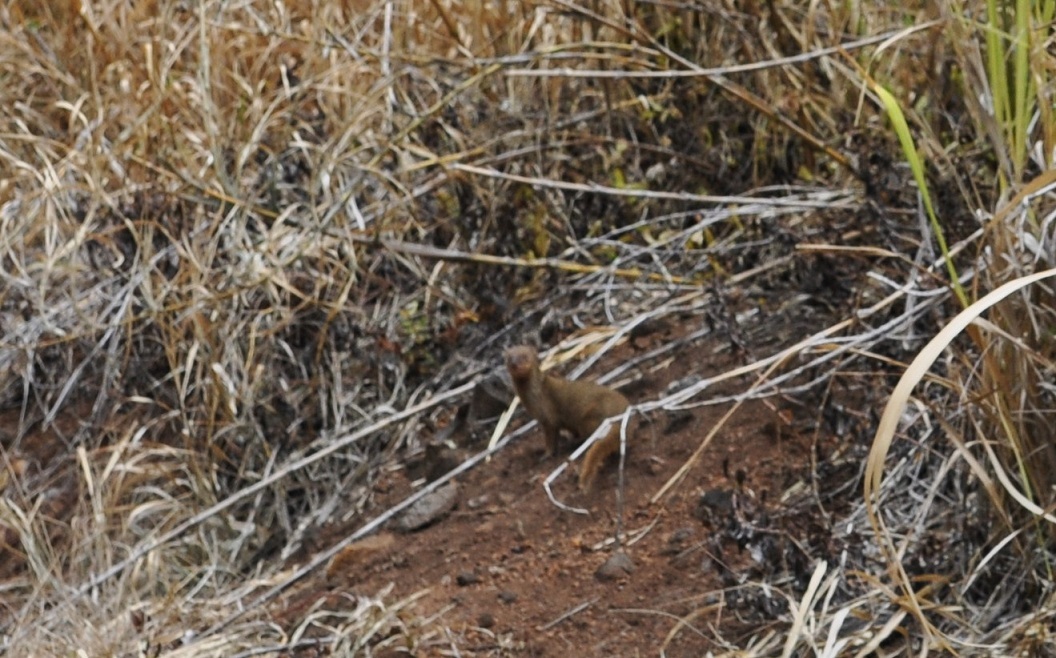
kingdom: Animalia
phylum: Chordata
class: Mammalia
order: Carnivora
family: Herpestidae
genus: Herpestes
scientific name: Herpestes javanicus
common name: Small asian mongoose
